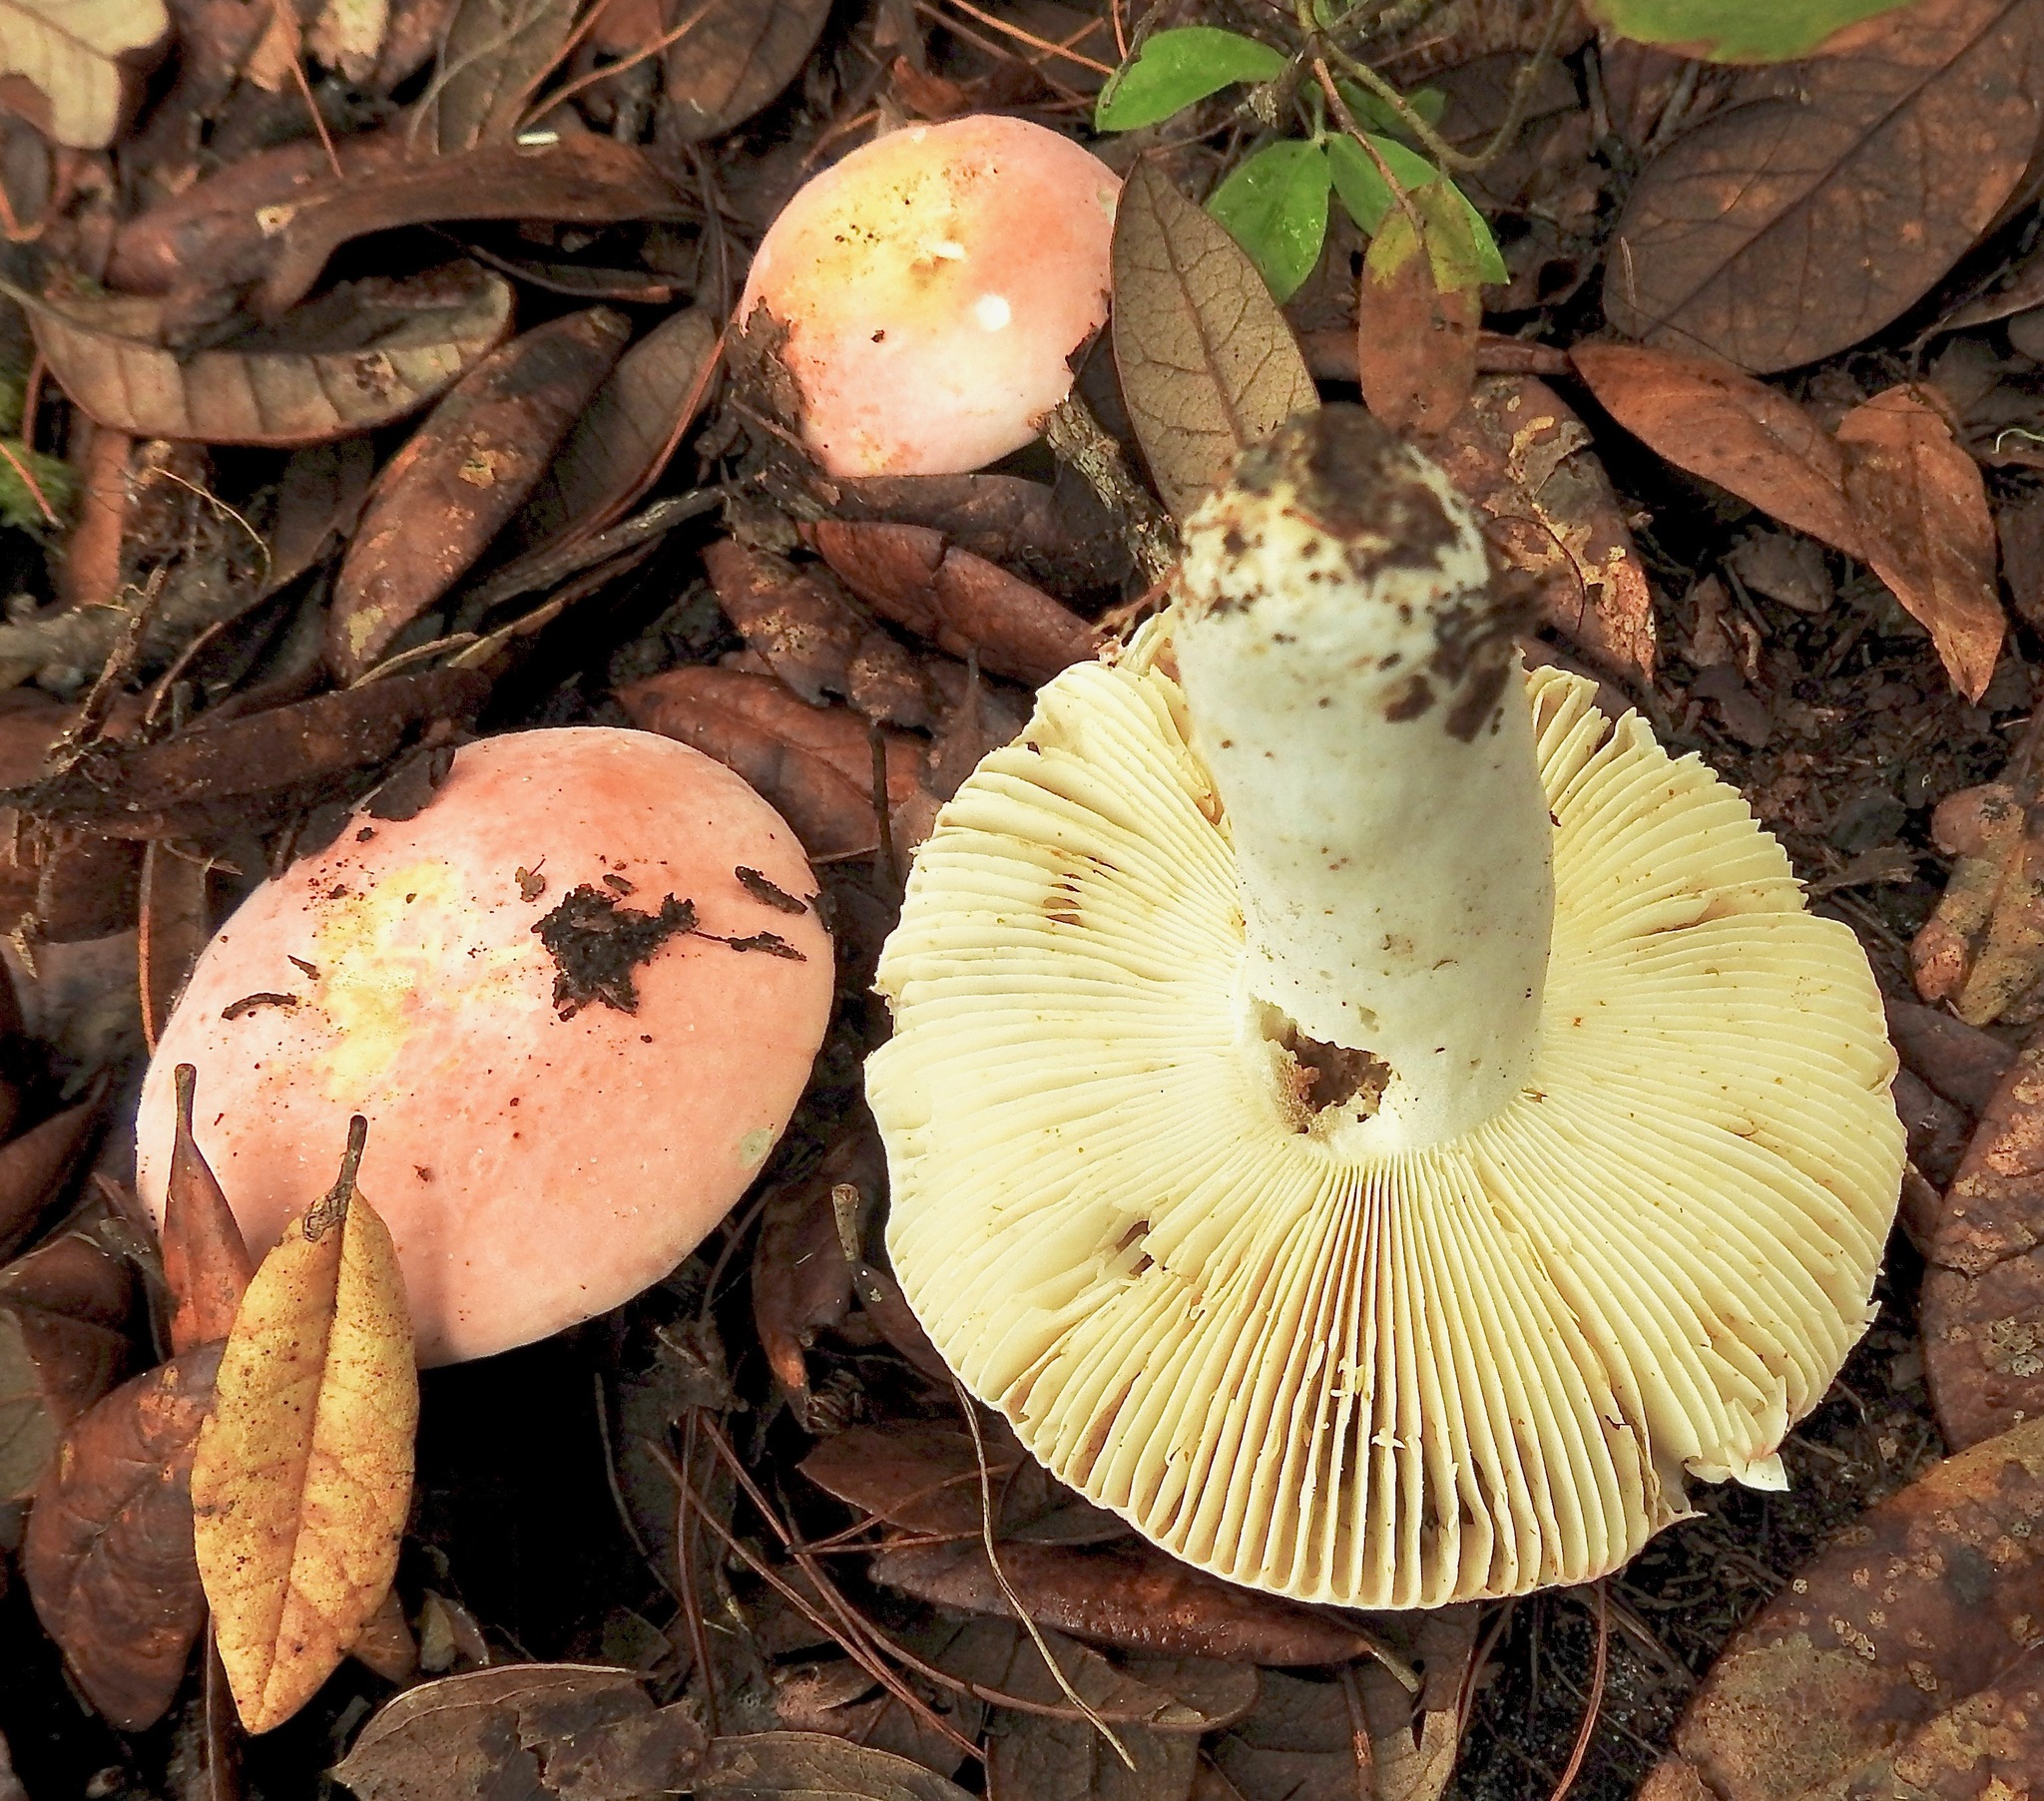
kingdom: Fungi
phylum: Basidiomycota
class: Agaricomycetes
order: Russulales
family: Russulaceae
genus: Russula
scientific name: Russula hixsonii
